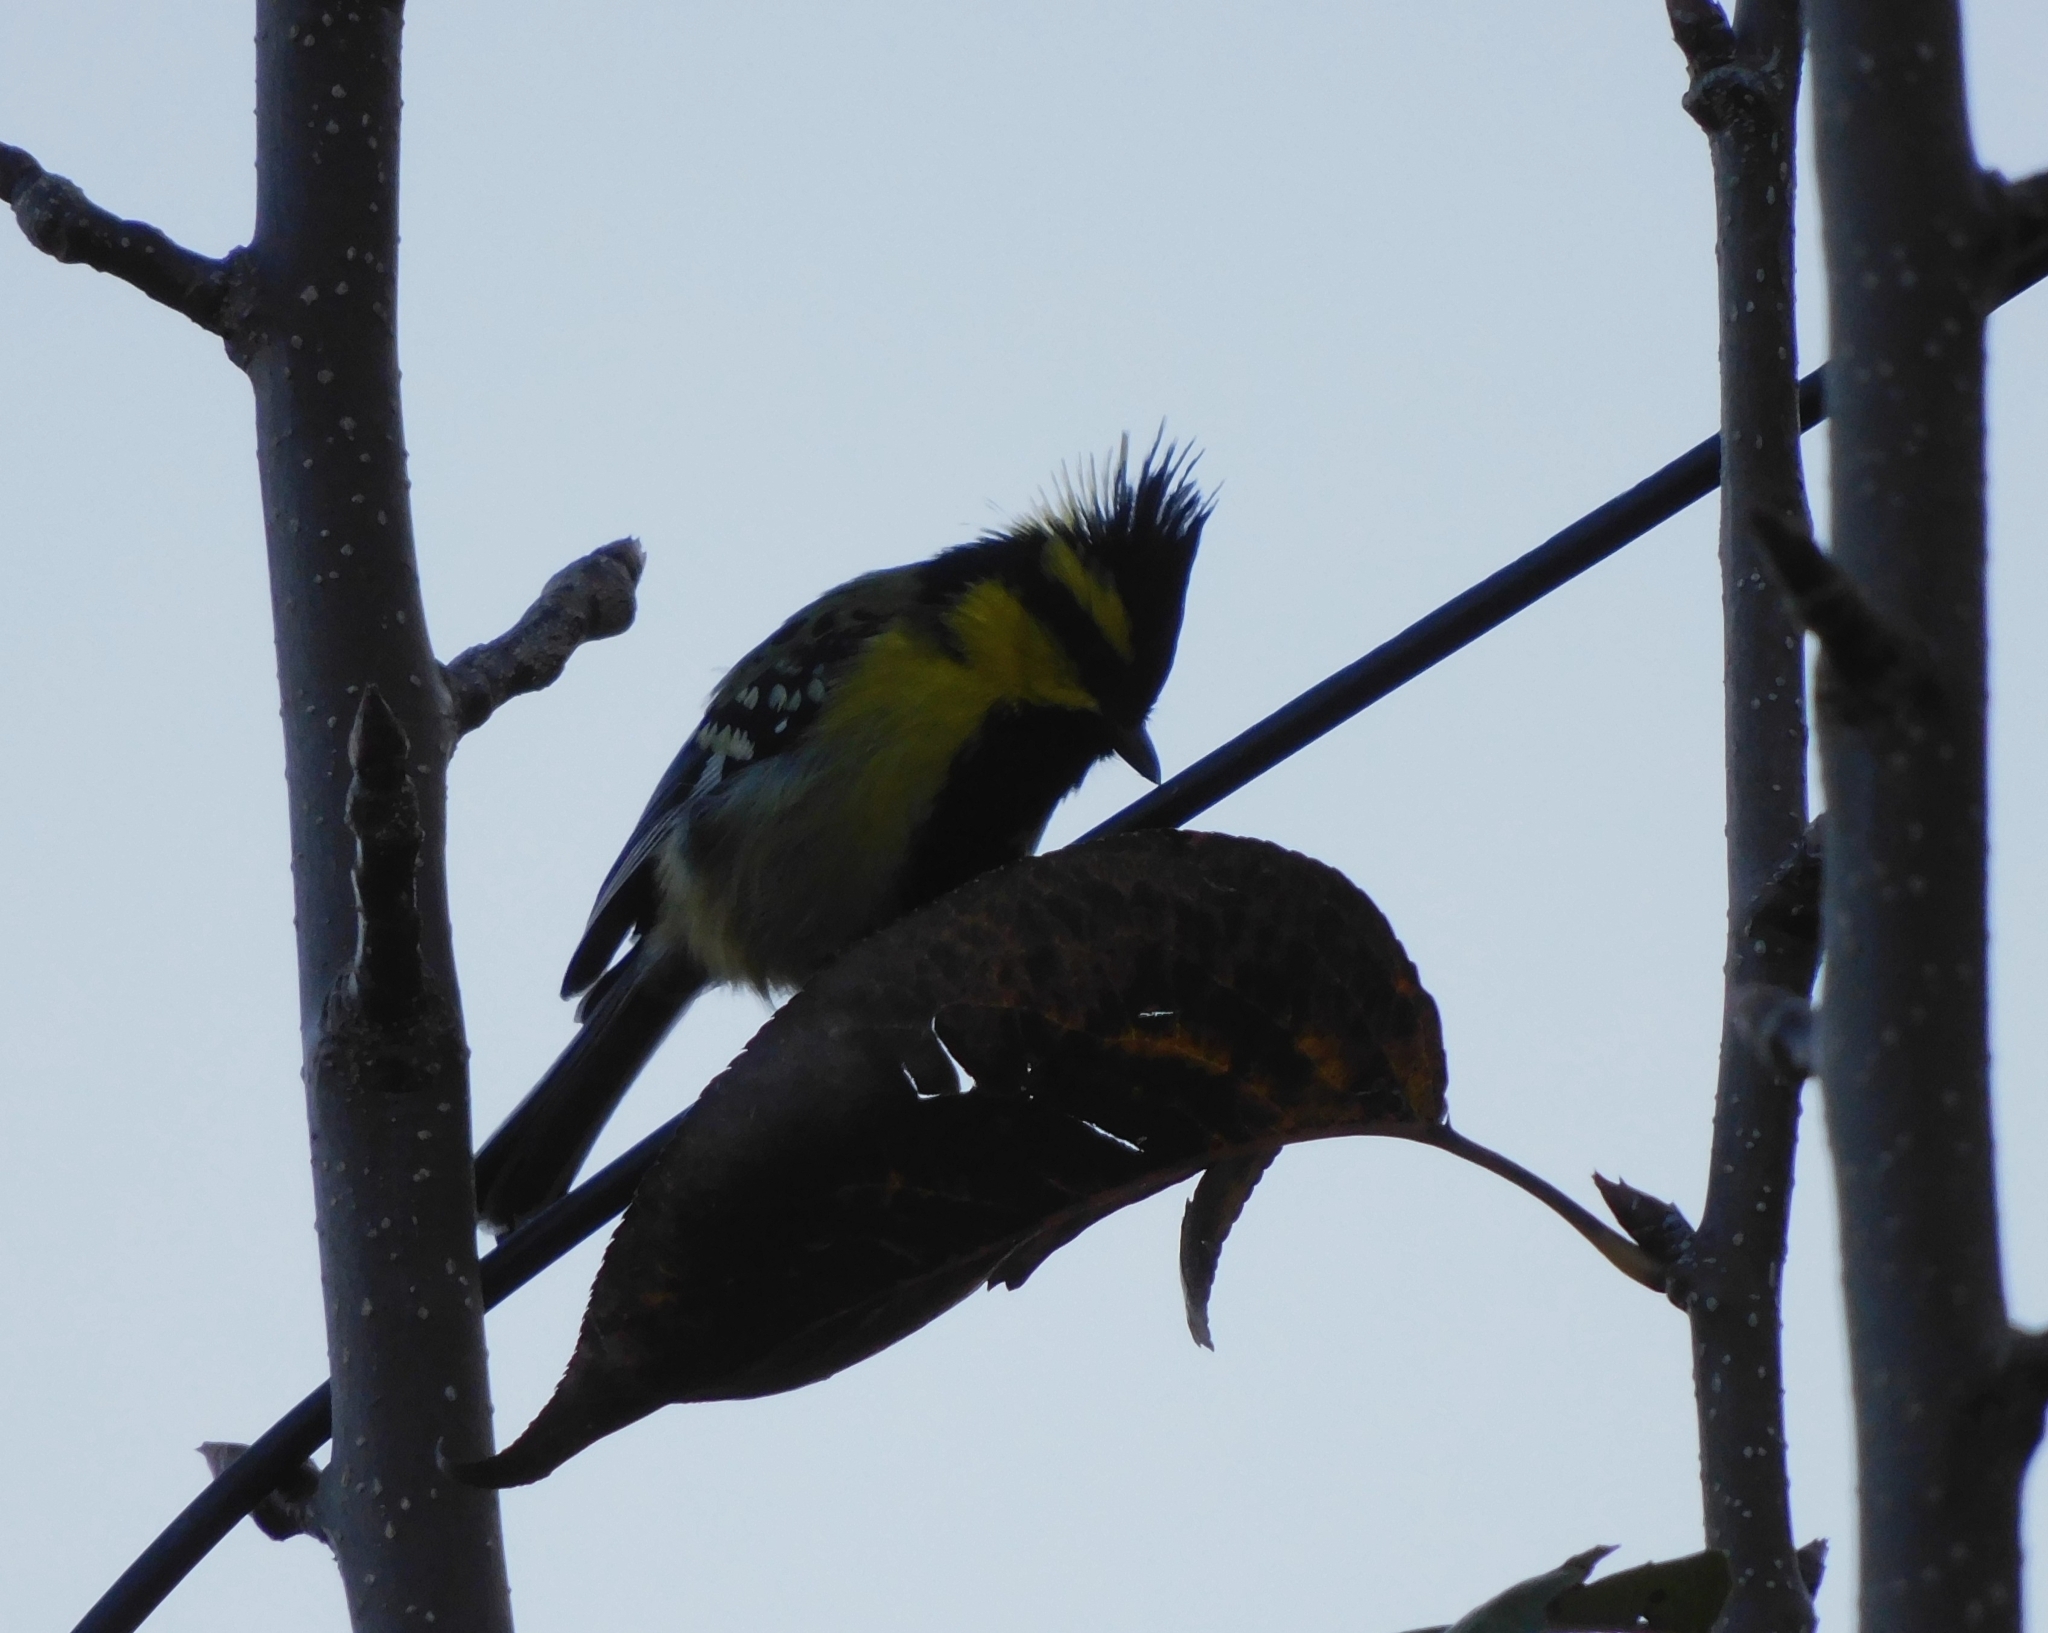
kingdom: Animalia
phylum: Chordata
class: Aves
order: Passeriformes
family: Paridae
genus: Parus
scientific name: Parus xanthogenys
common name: Black-lored tit
